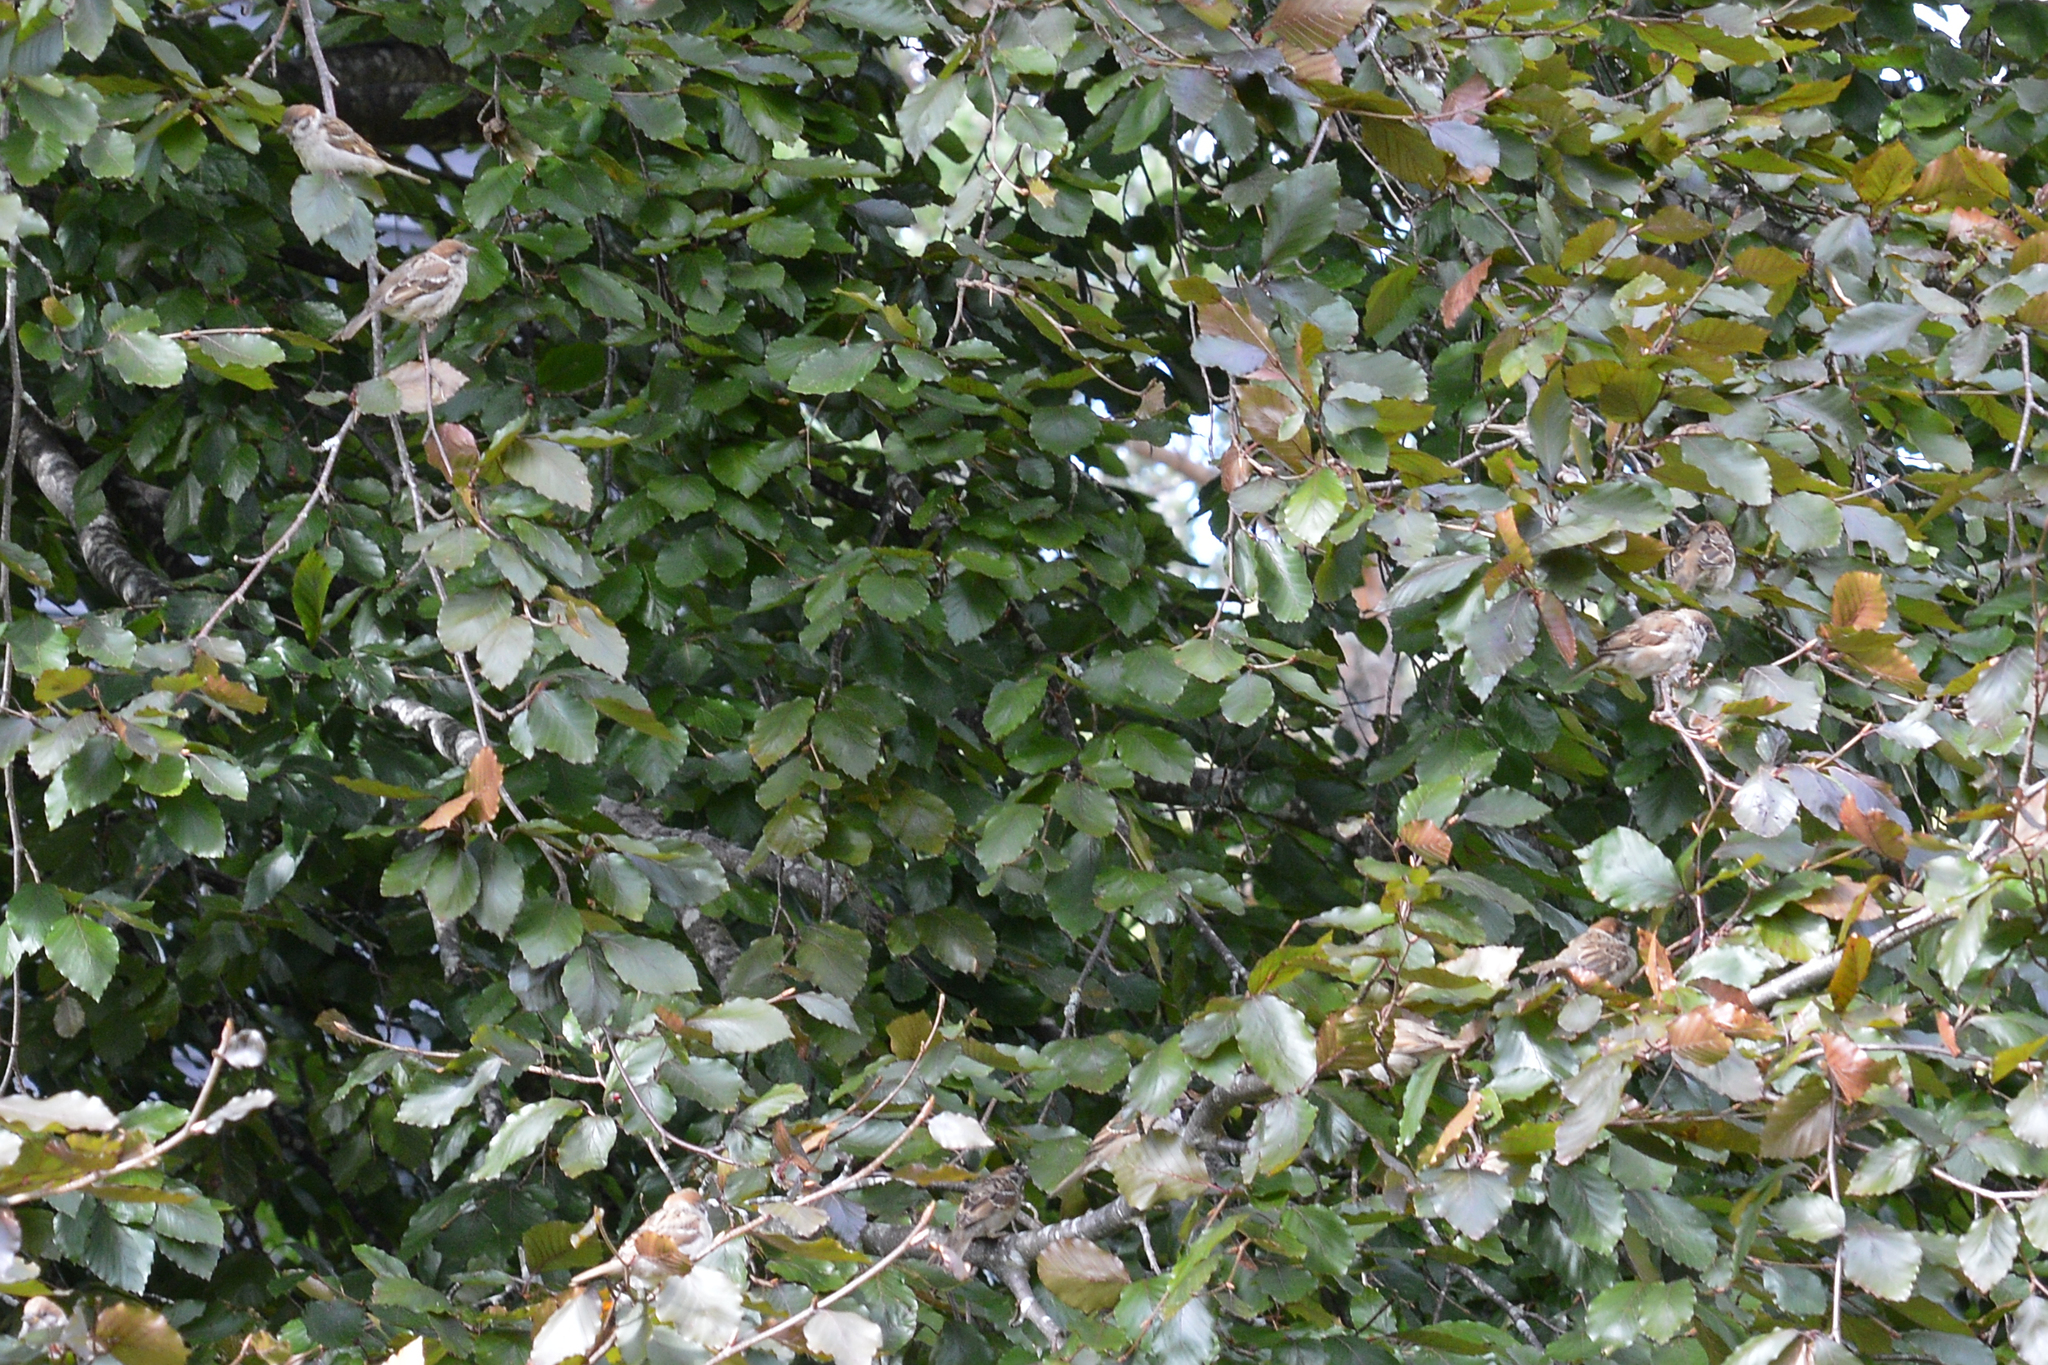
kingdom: Animalia
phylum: Chordata
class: Aves
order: Passeriformes
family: Passeridae
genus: Passer
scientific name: Passer montanus
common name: Eurasian tree sparrow
